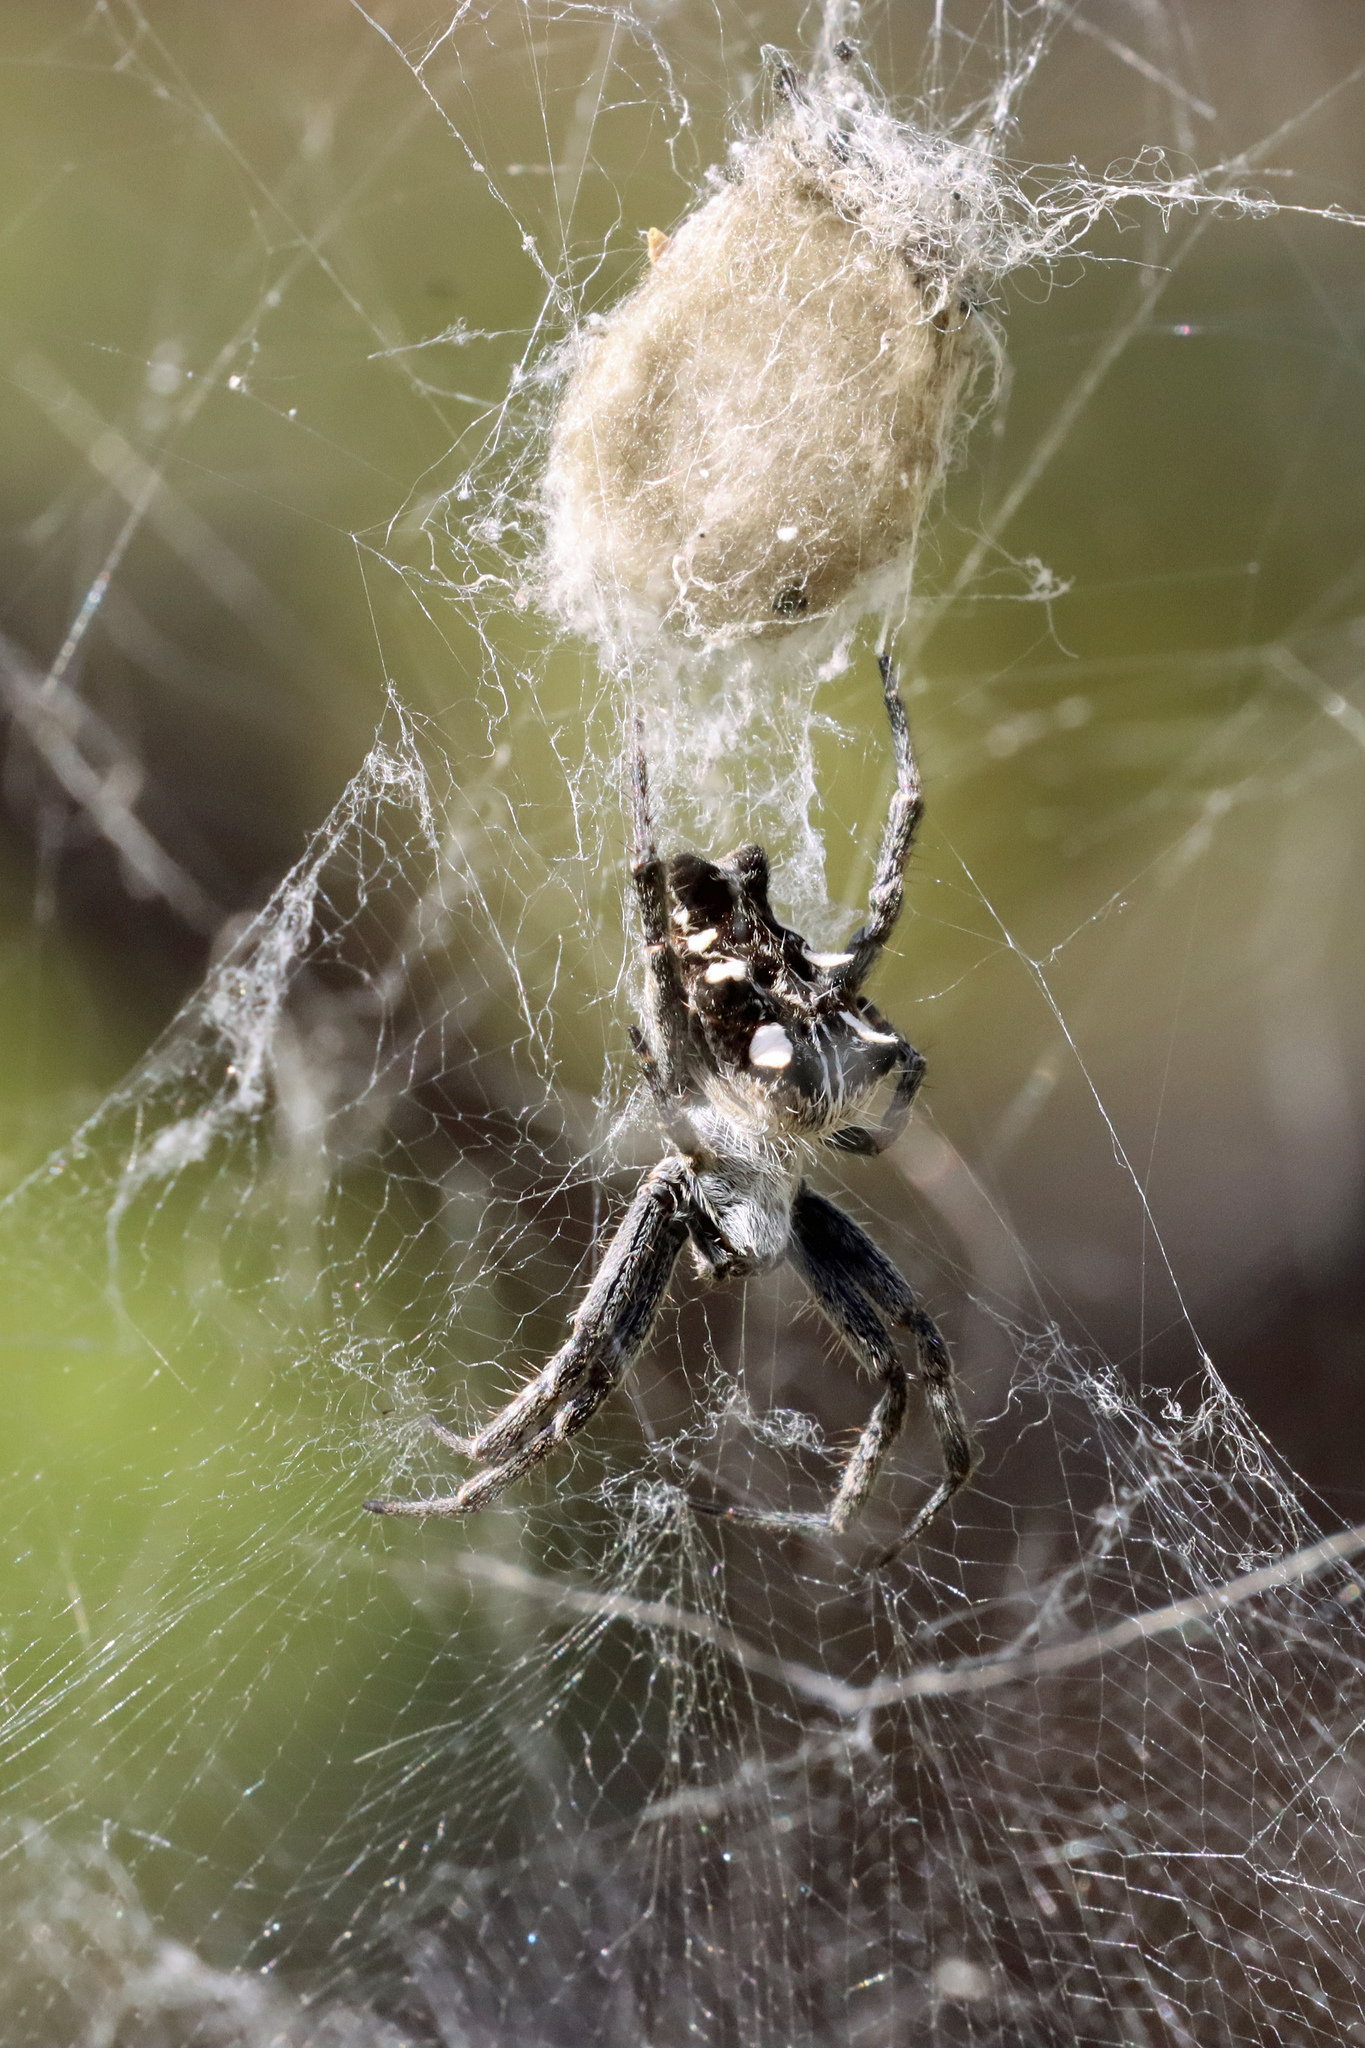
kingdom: Animalia
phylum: Arthropoda
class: Arachnida
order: Araneae
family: Araneidae
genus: Cyrtophora
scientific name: Cyrtophora citricola
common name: Orb weavers
